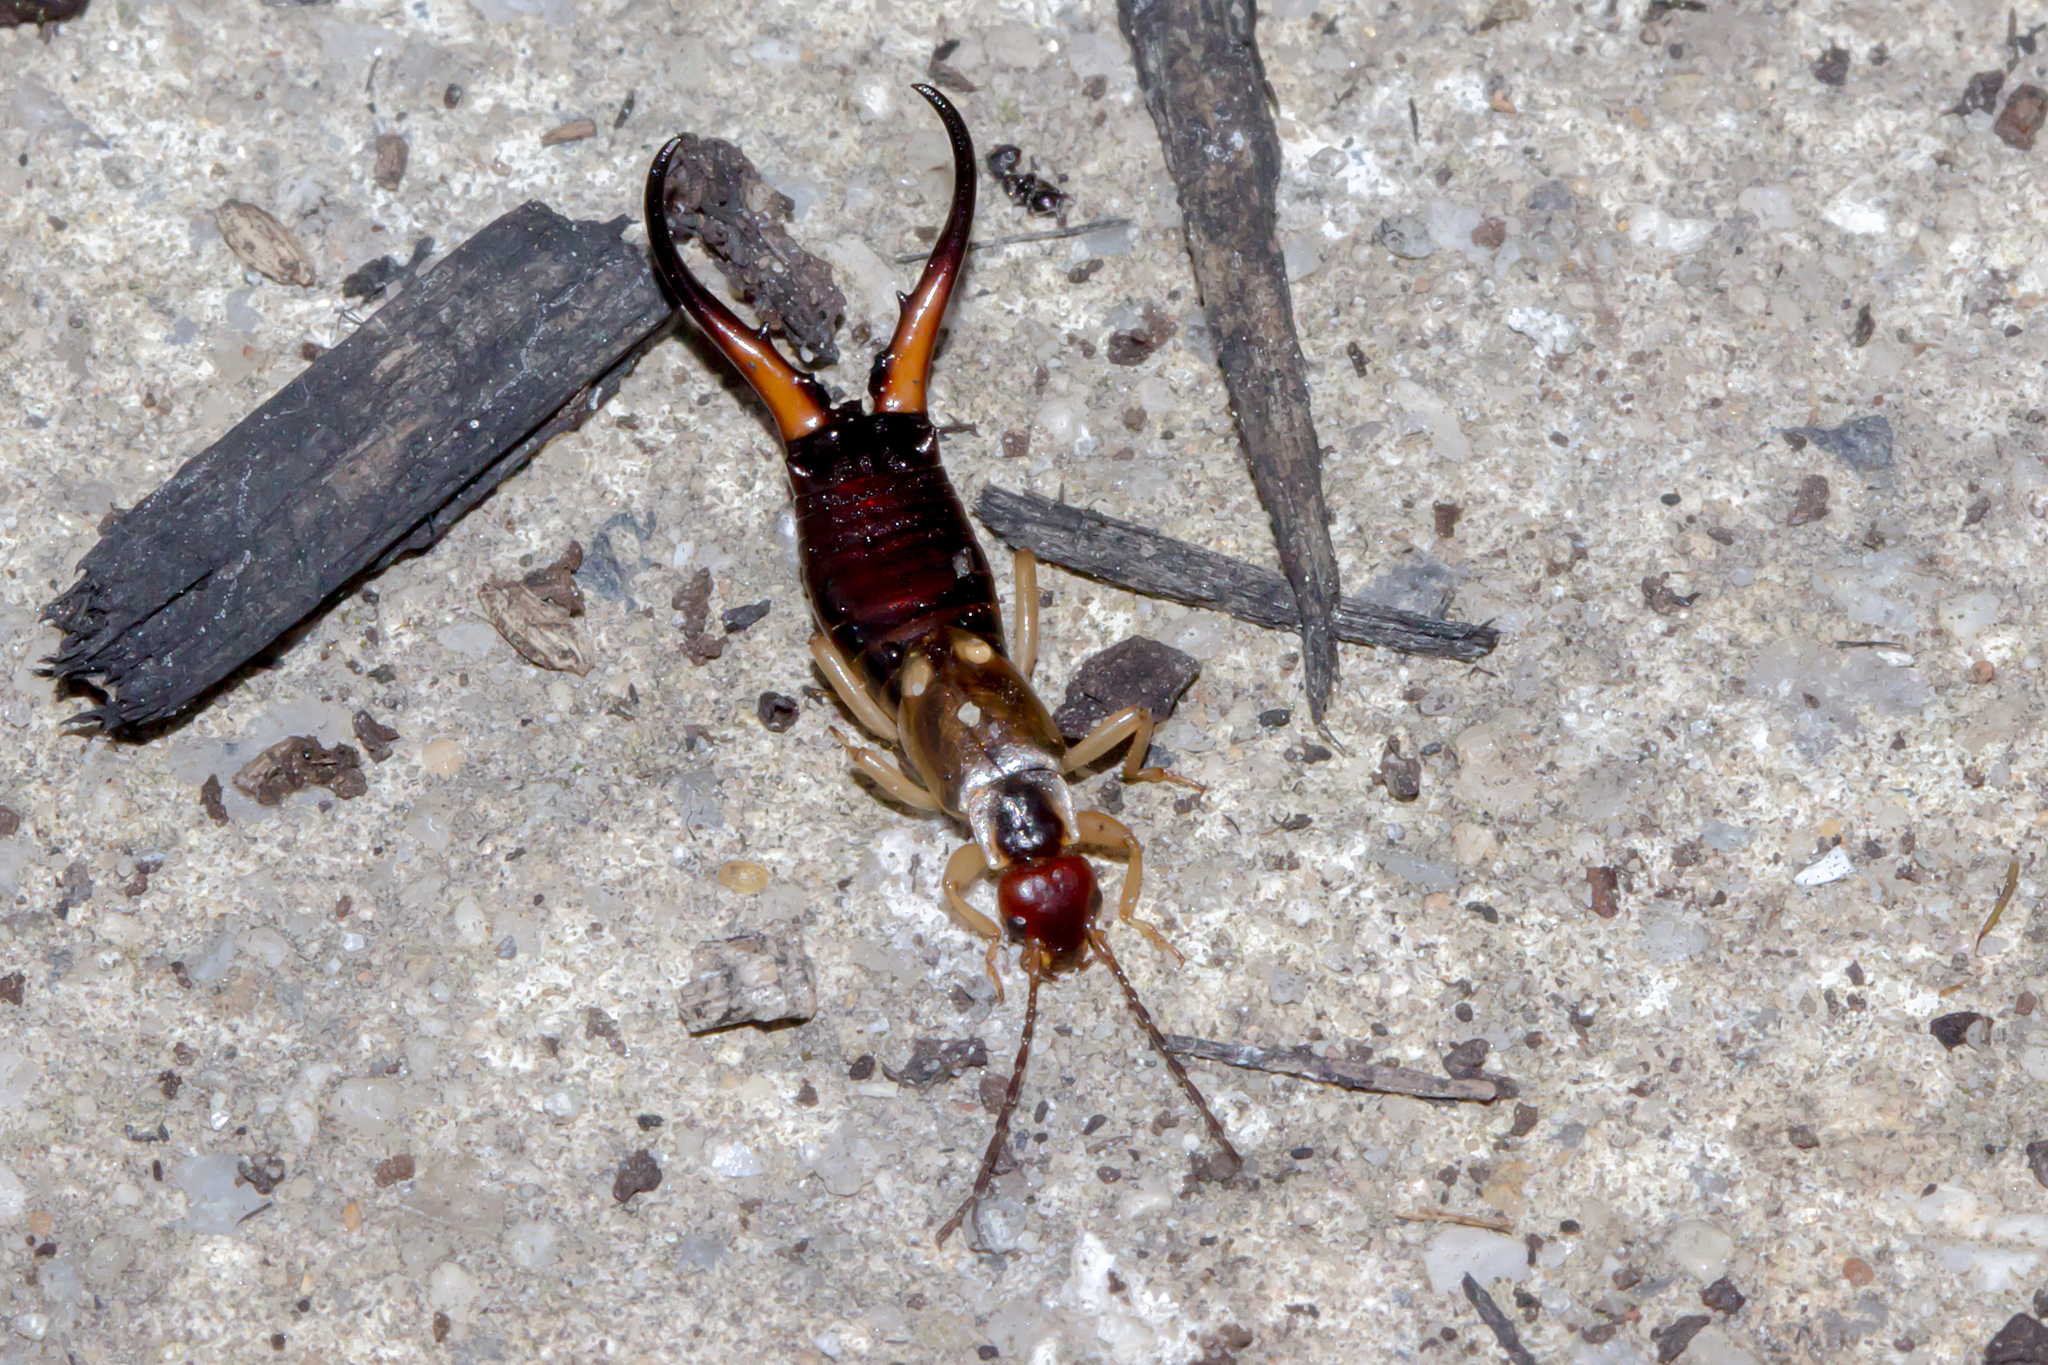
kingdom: Animalia
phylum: Arthropoda
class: Insecta
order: Dermaptera
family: Forficulidae
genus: Forficula
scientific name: Forficula
